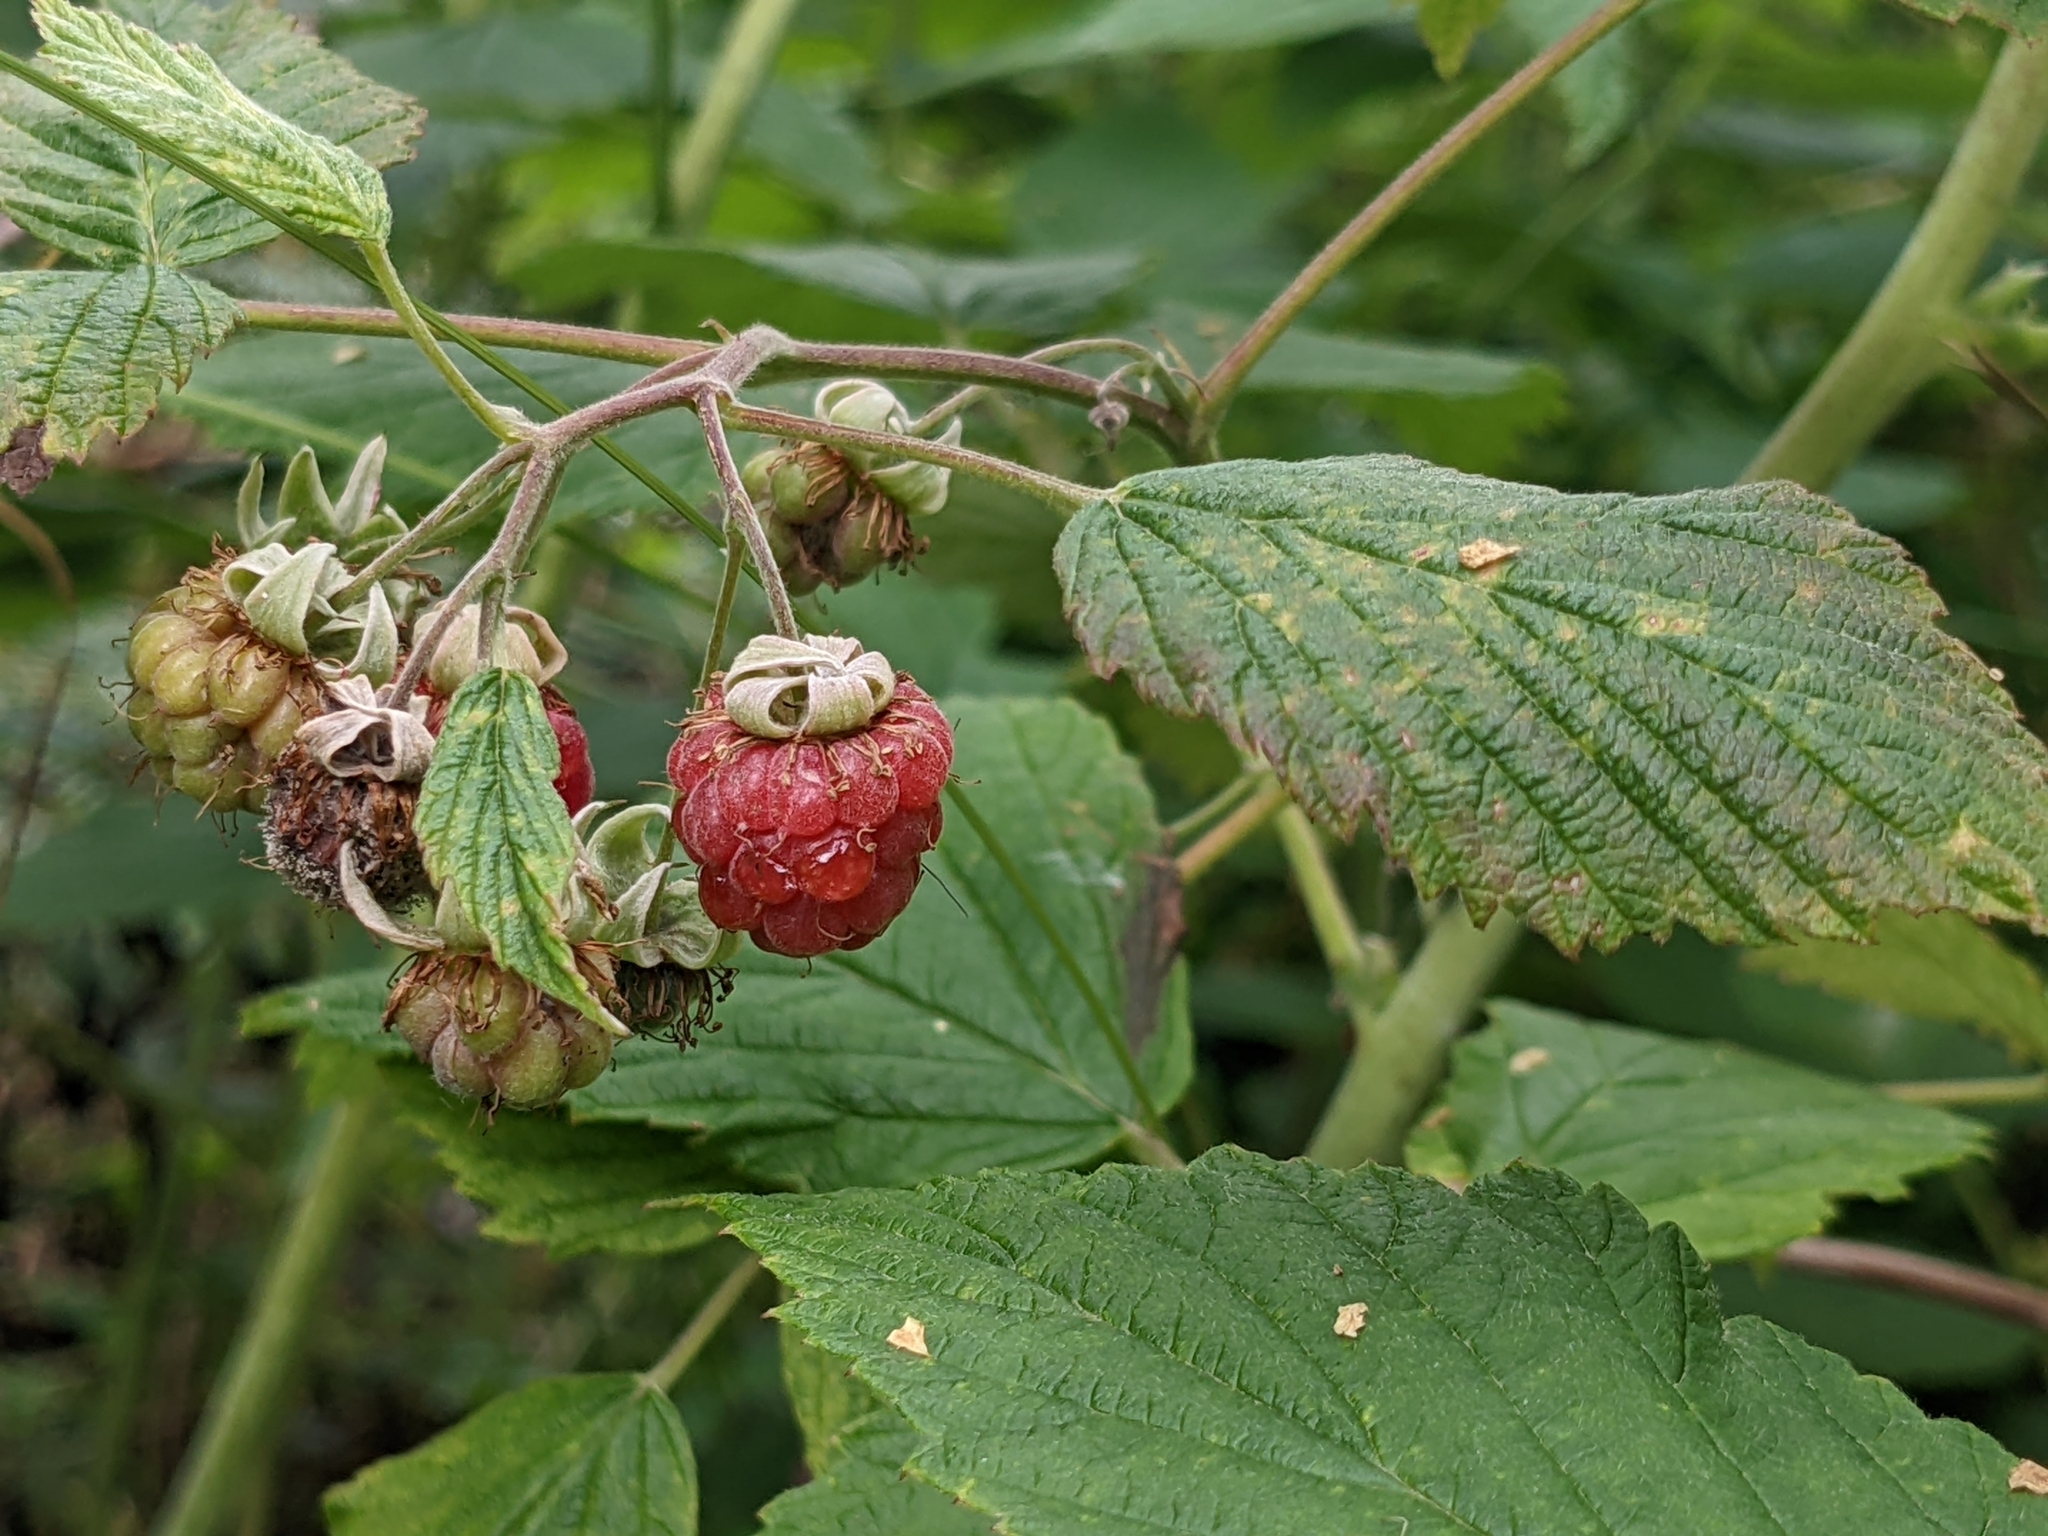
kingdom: Plantae
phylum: Tracheophyta
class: Magnoliopsida
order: Rosales
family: Rosaceae
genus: Rubus
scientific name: Rubus idaeus
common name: Raspberry
